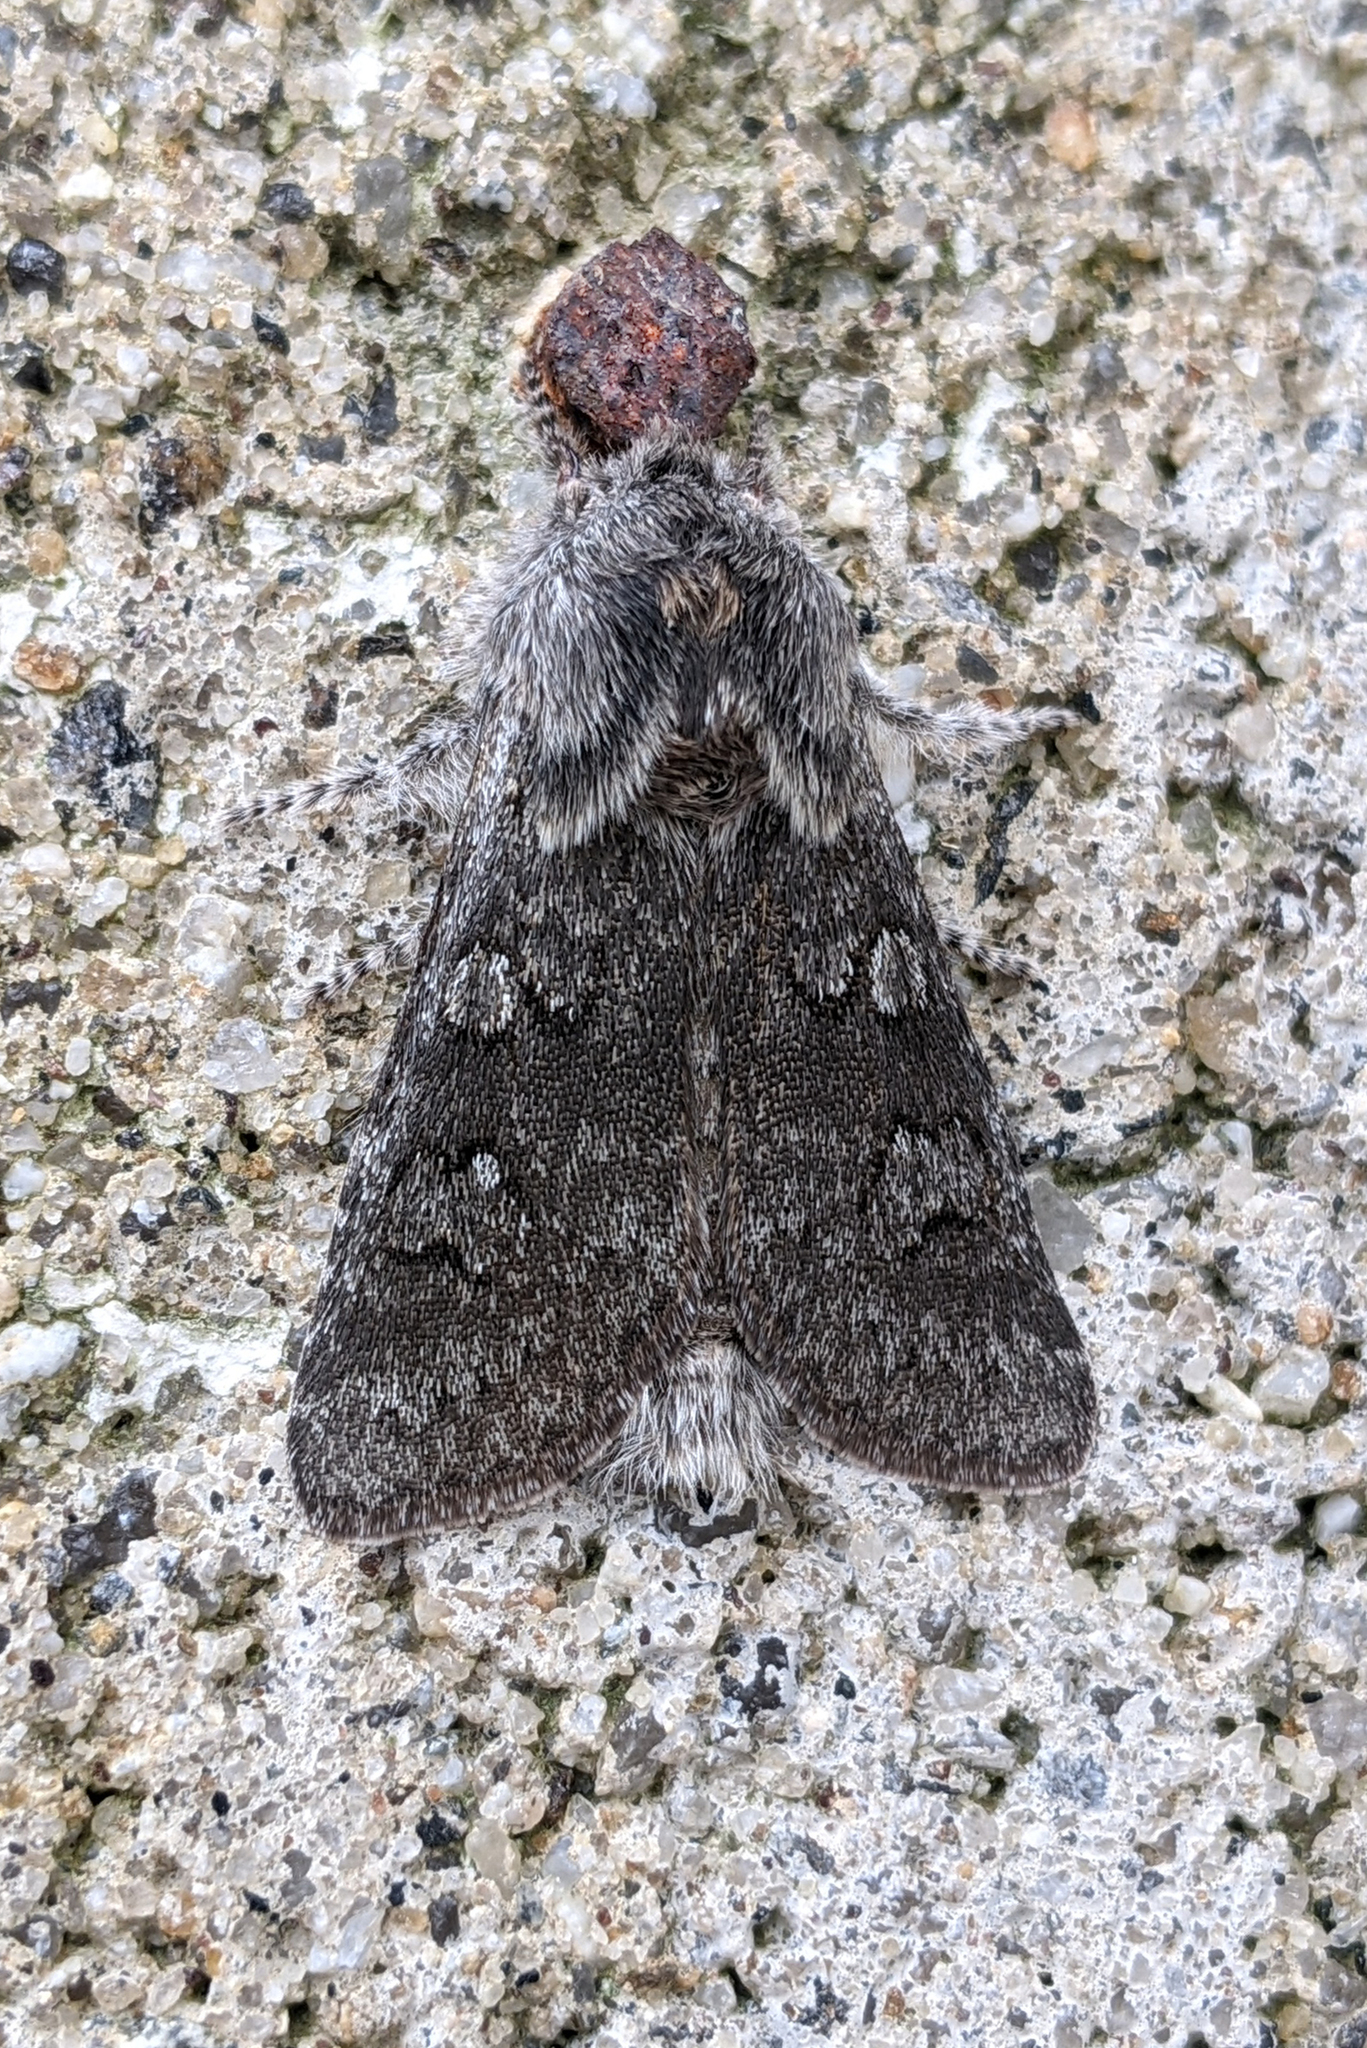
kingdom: Animalia
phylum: Arthropoda
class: Insecta
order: Lepidoptera
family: Noctuidae
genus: Psaphida
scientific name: Psaphida rolandi
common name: Roland's sallow
